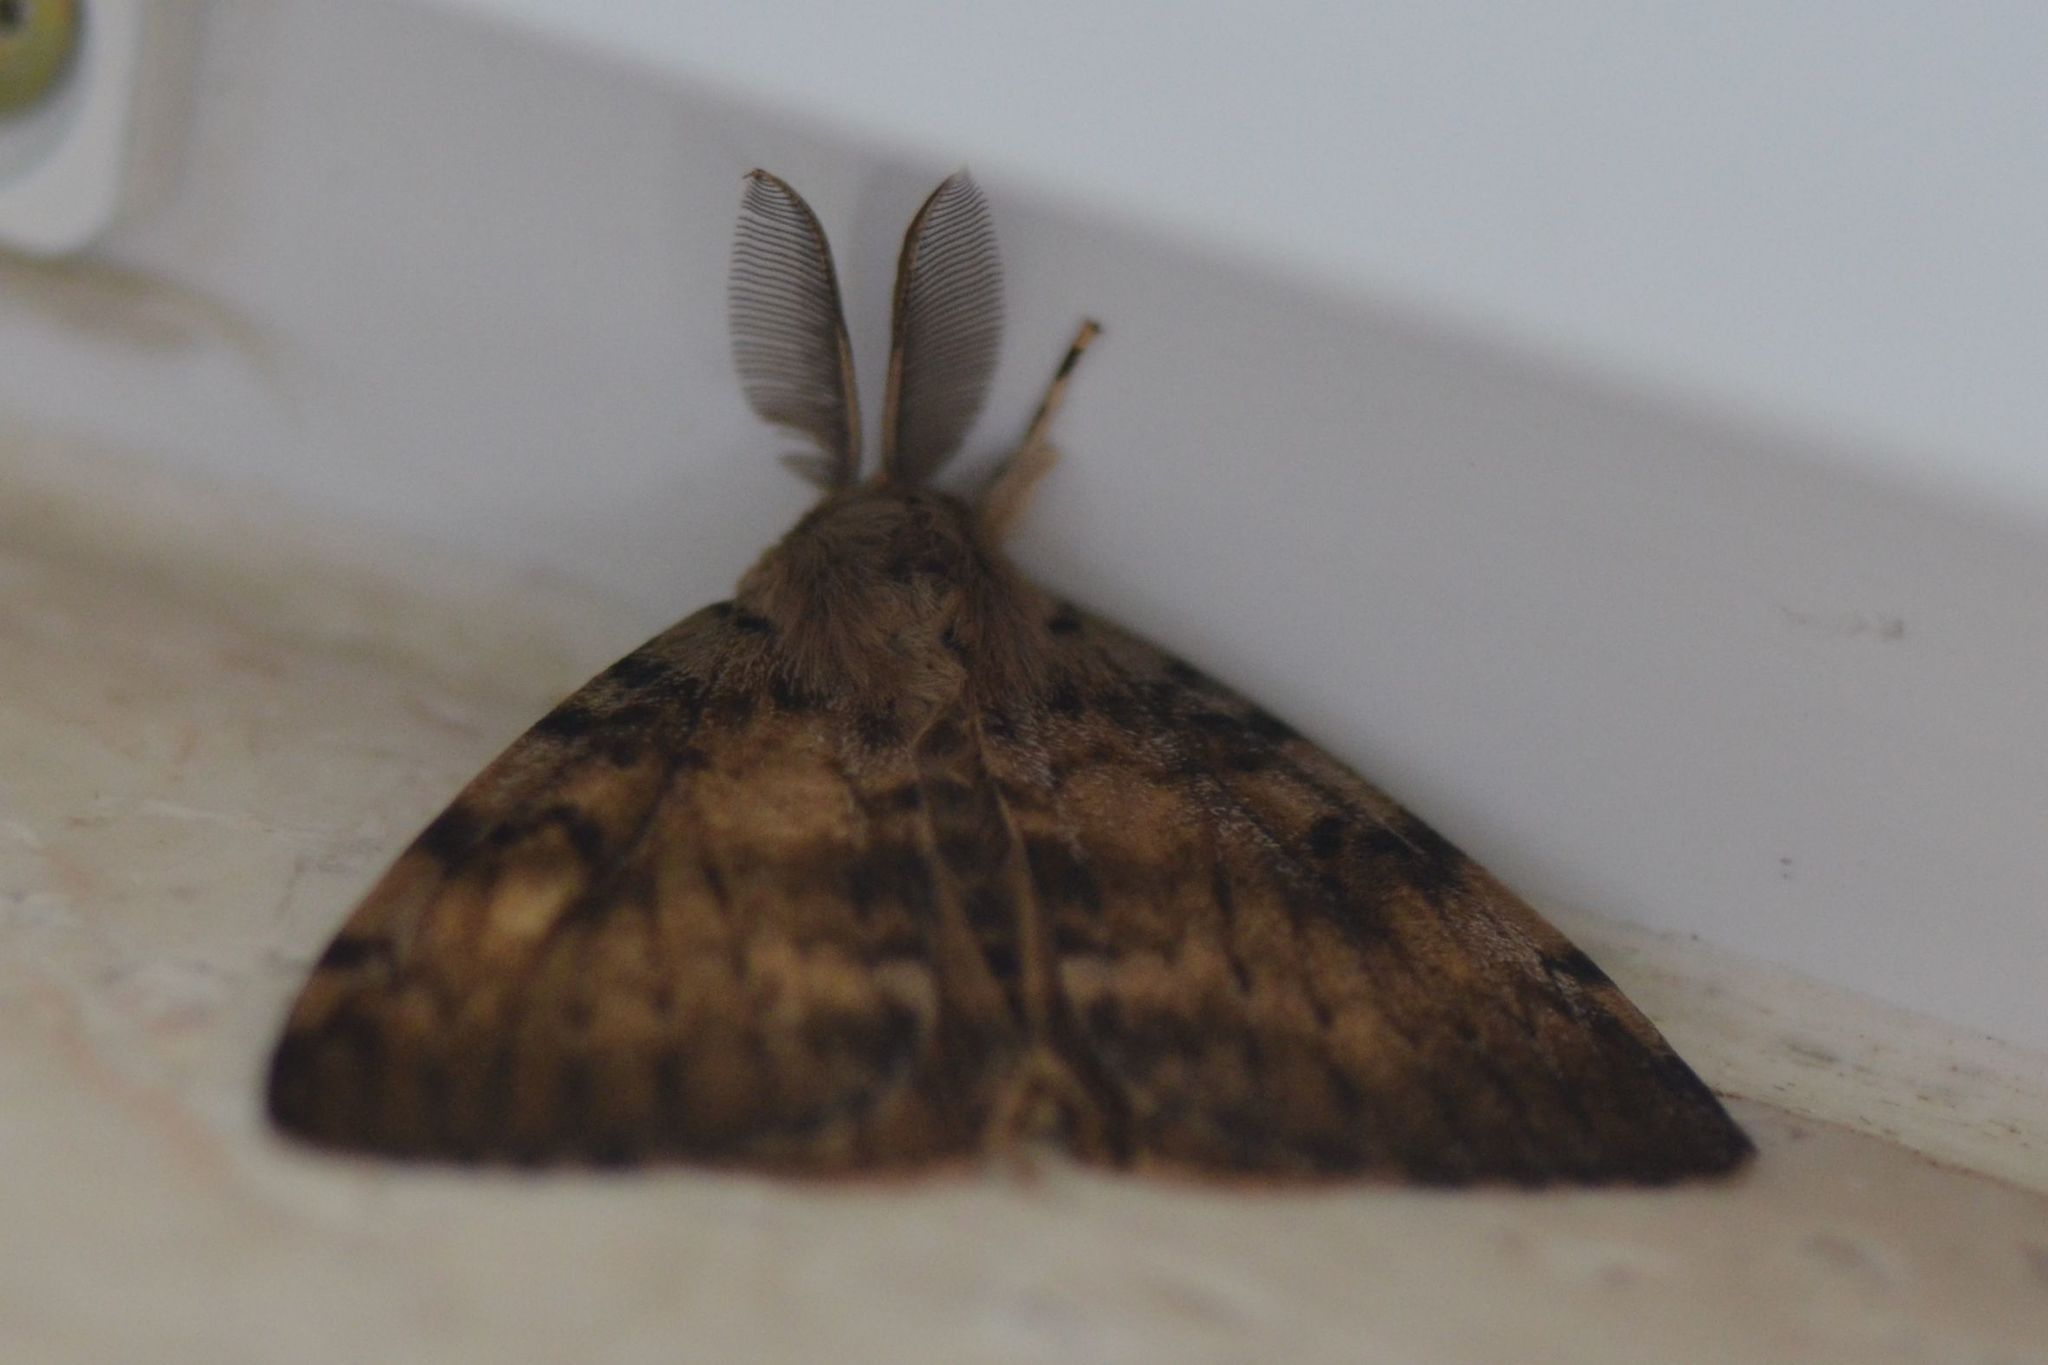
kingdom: Animalia
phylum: Arthropoda
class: Insecta
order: Lepidoptera
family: Erebidae
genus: Lymantria
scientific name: Lymantria dispar
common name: Gypsy moth
